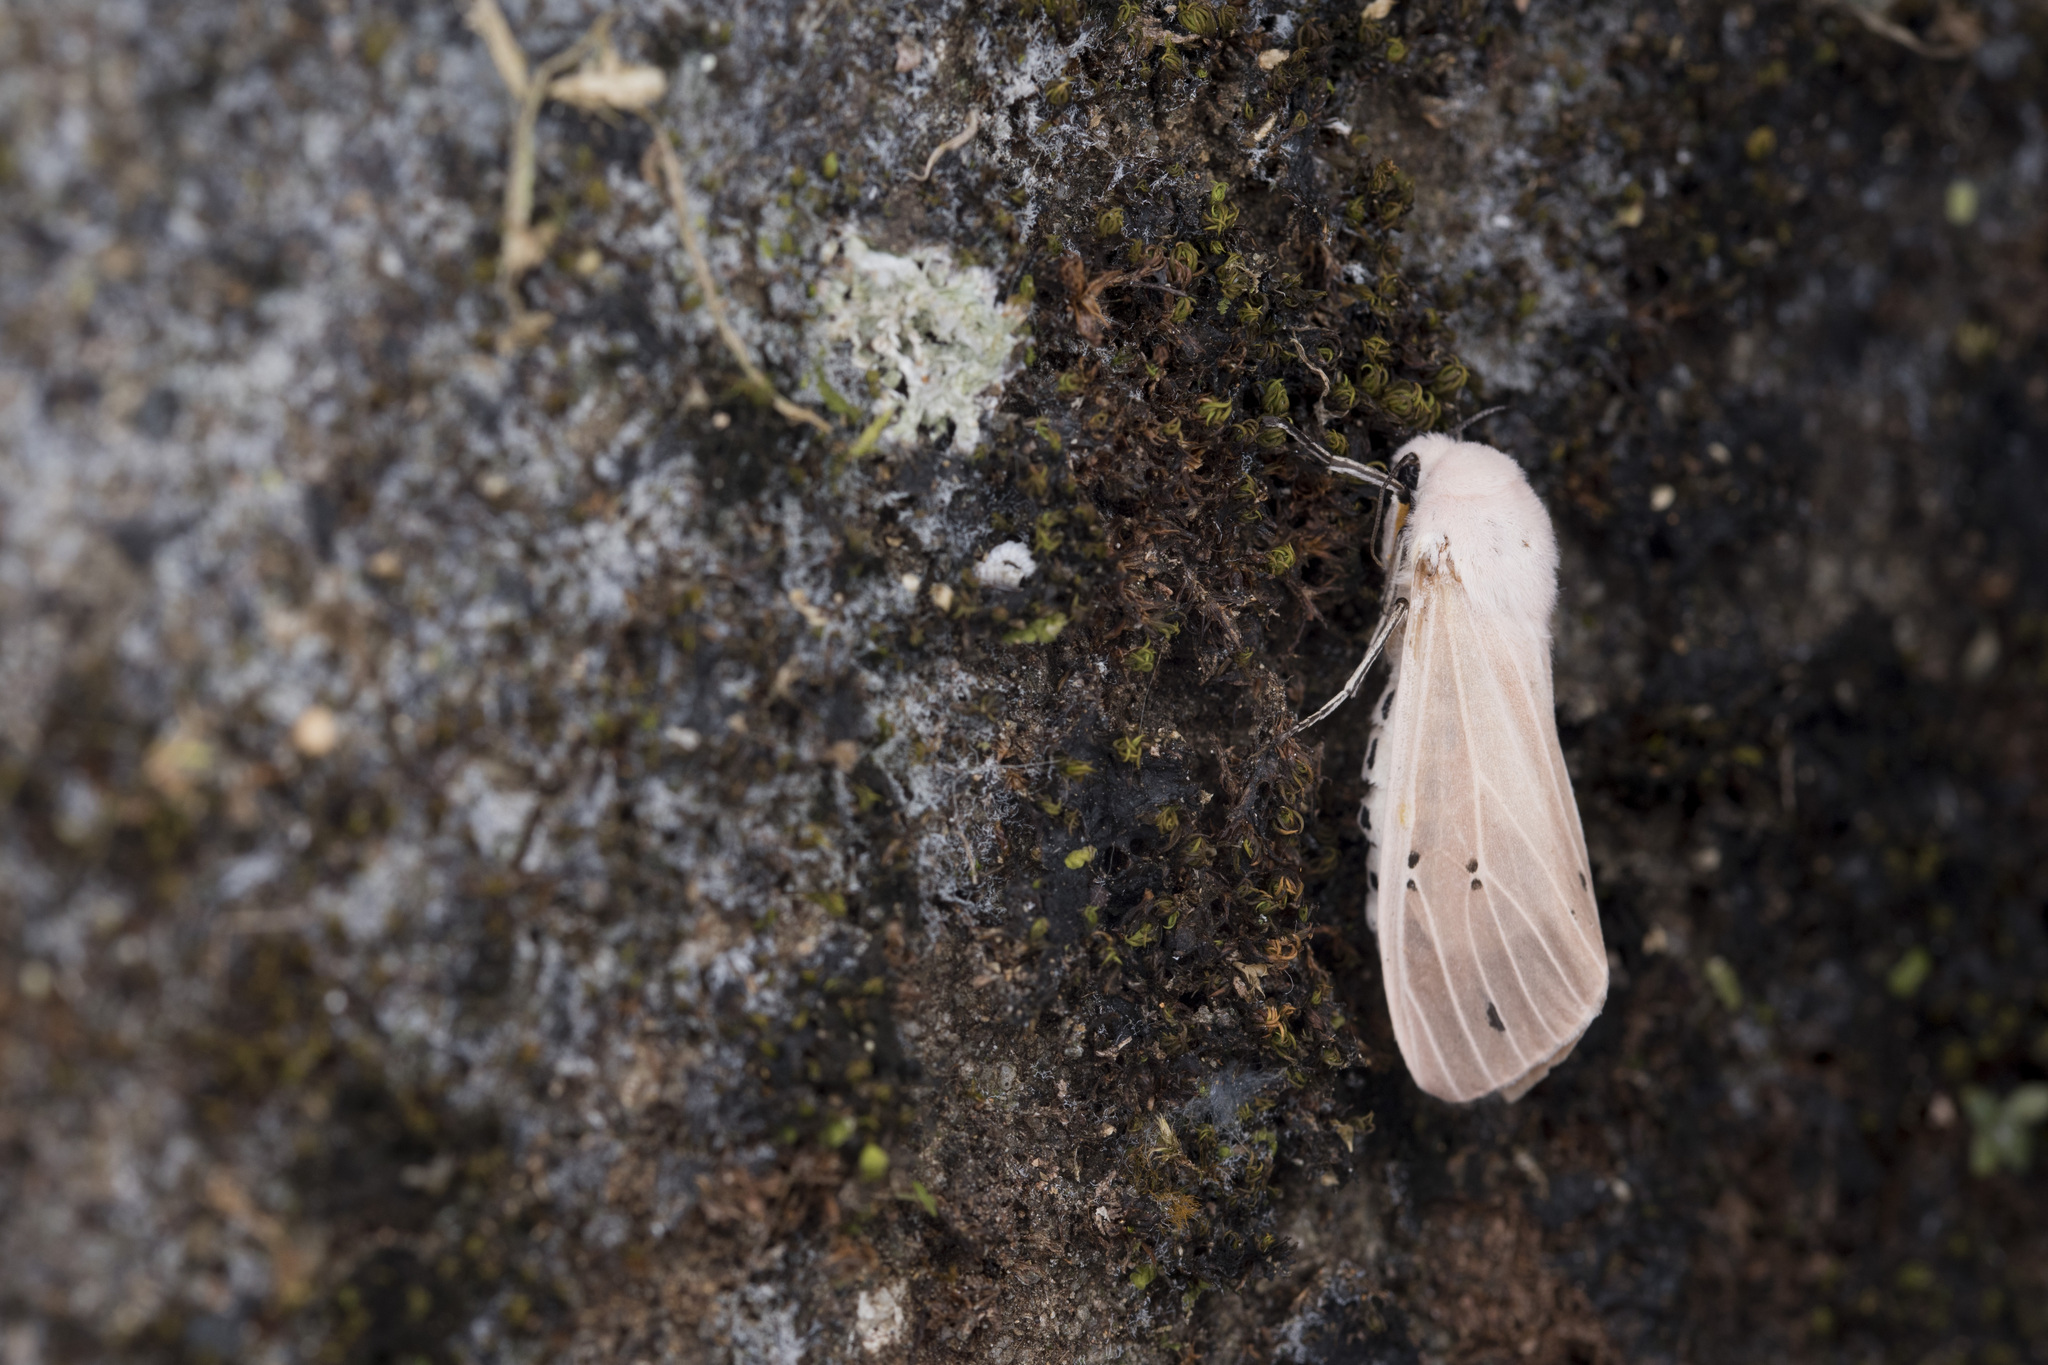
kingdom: Animalia
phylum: Arthropoda
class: Insecta
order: Lepidoptera
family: Erebidae
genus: Creatonotos
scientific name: Creatonotos transiens
